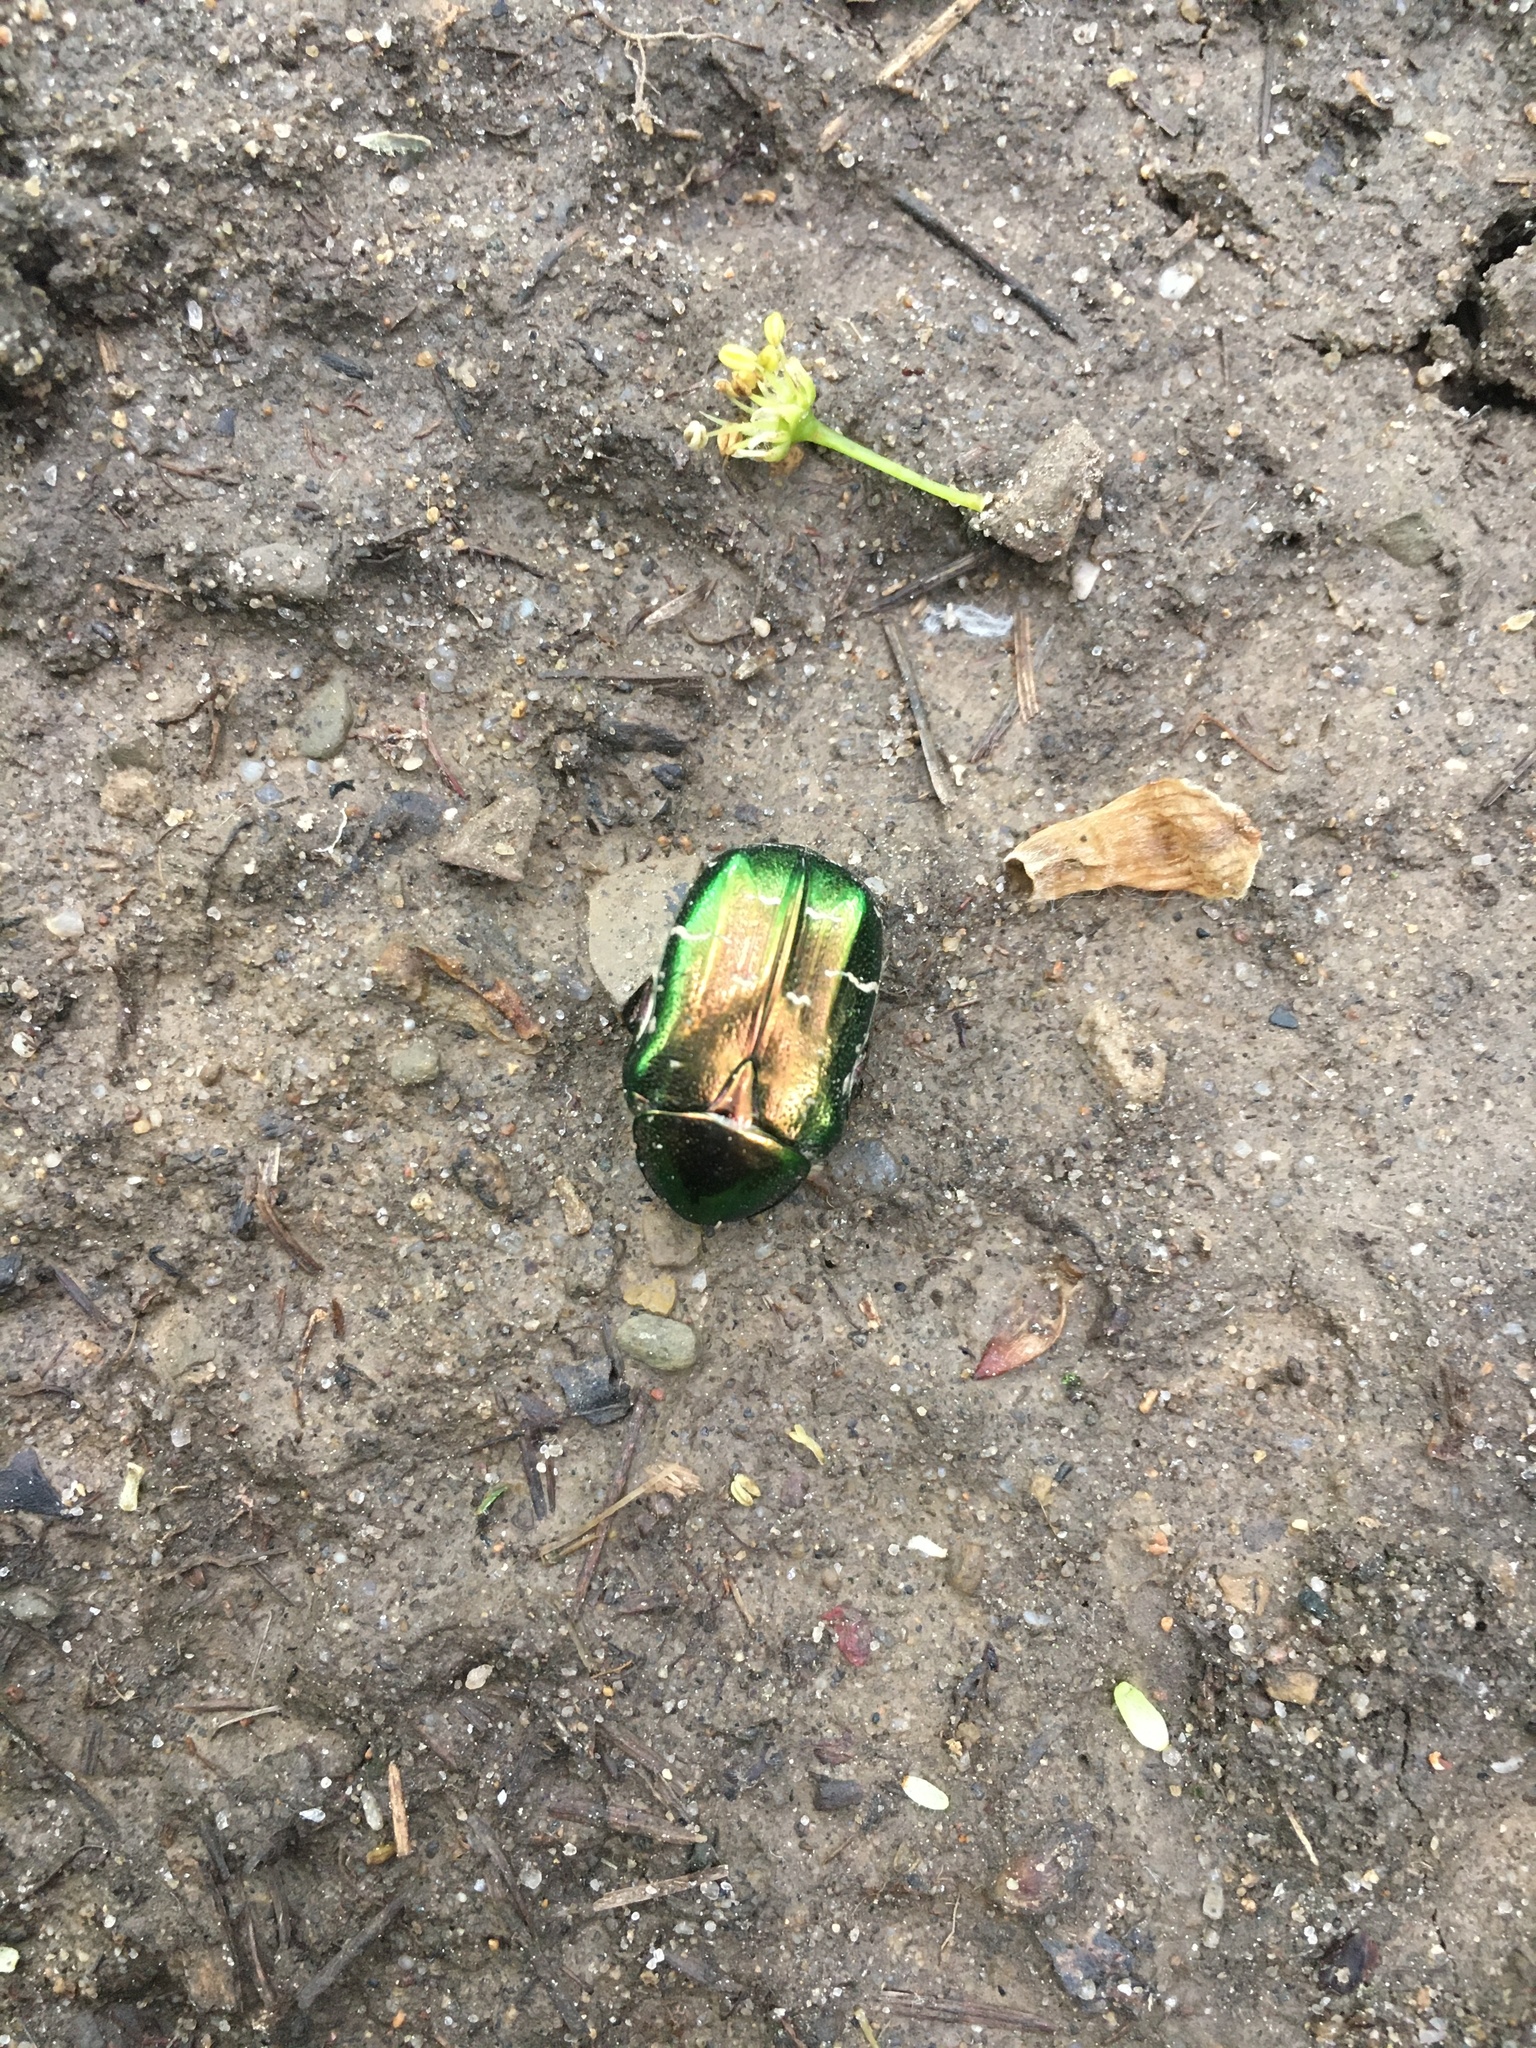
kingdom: Animalia
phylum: Arthropoda
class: Insecta
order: Coleoptera
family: Scarabaeidae
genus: Cetonia
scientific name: Cetonia aurata
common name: Rose chafer
